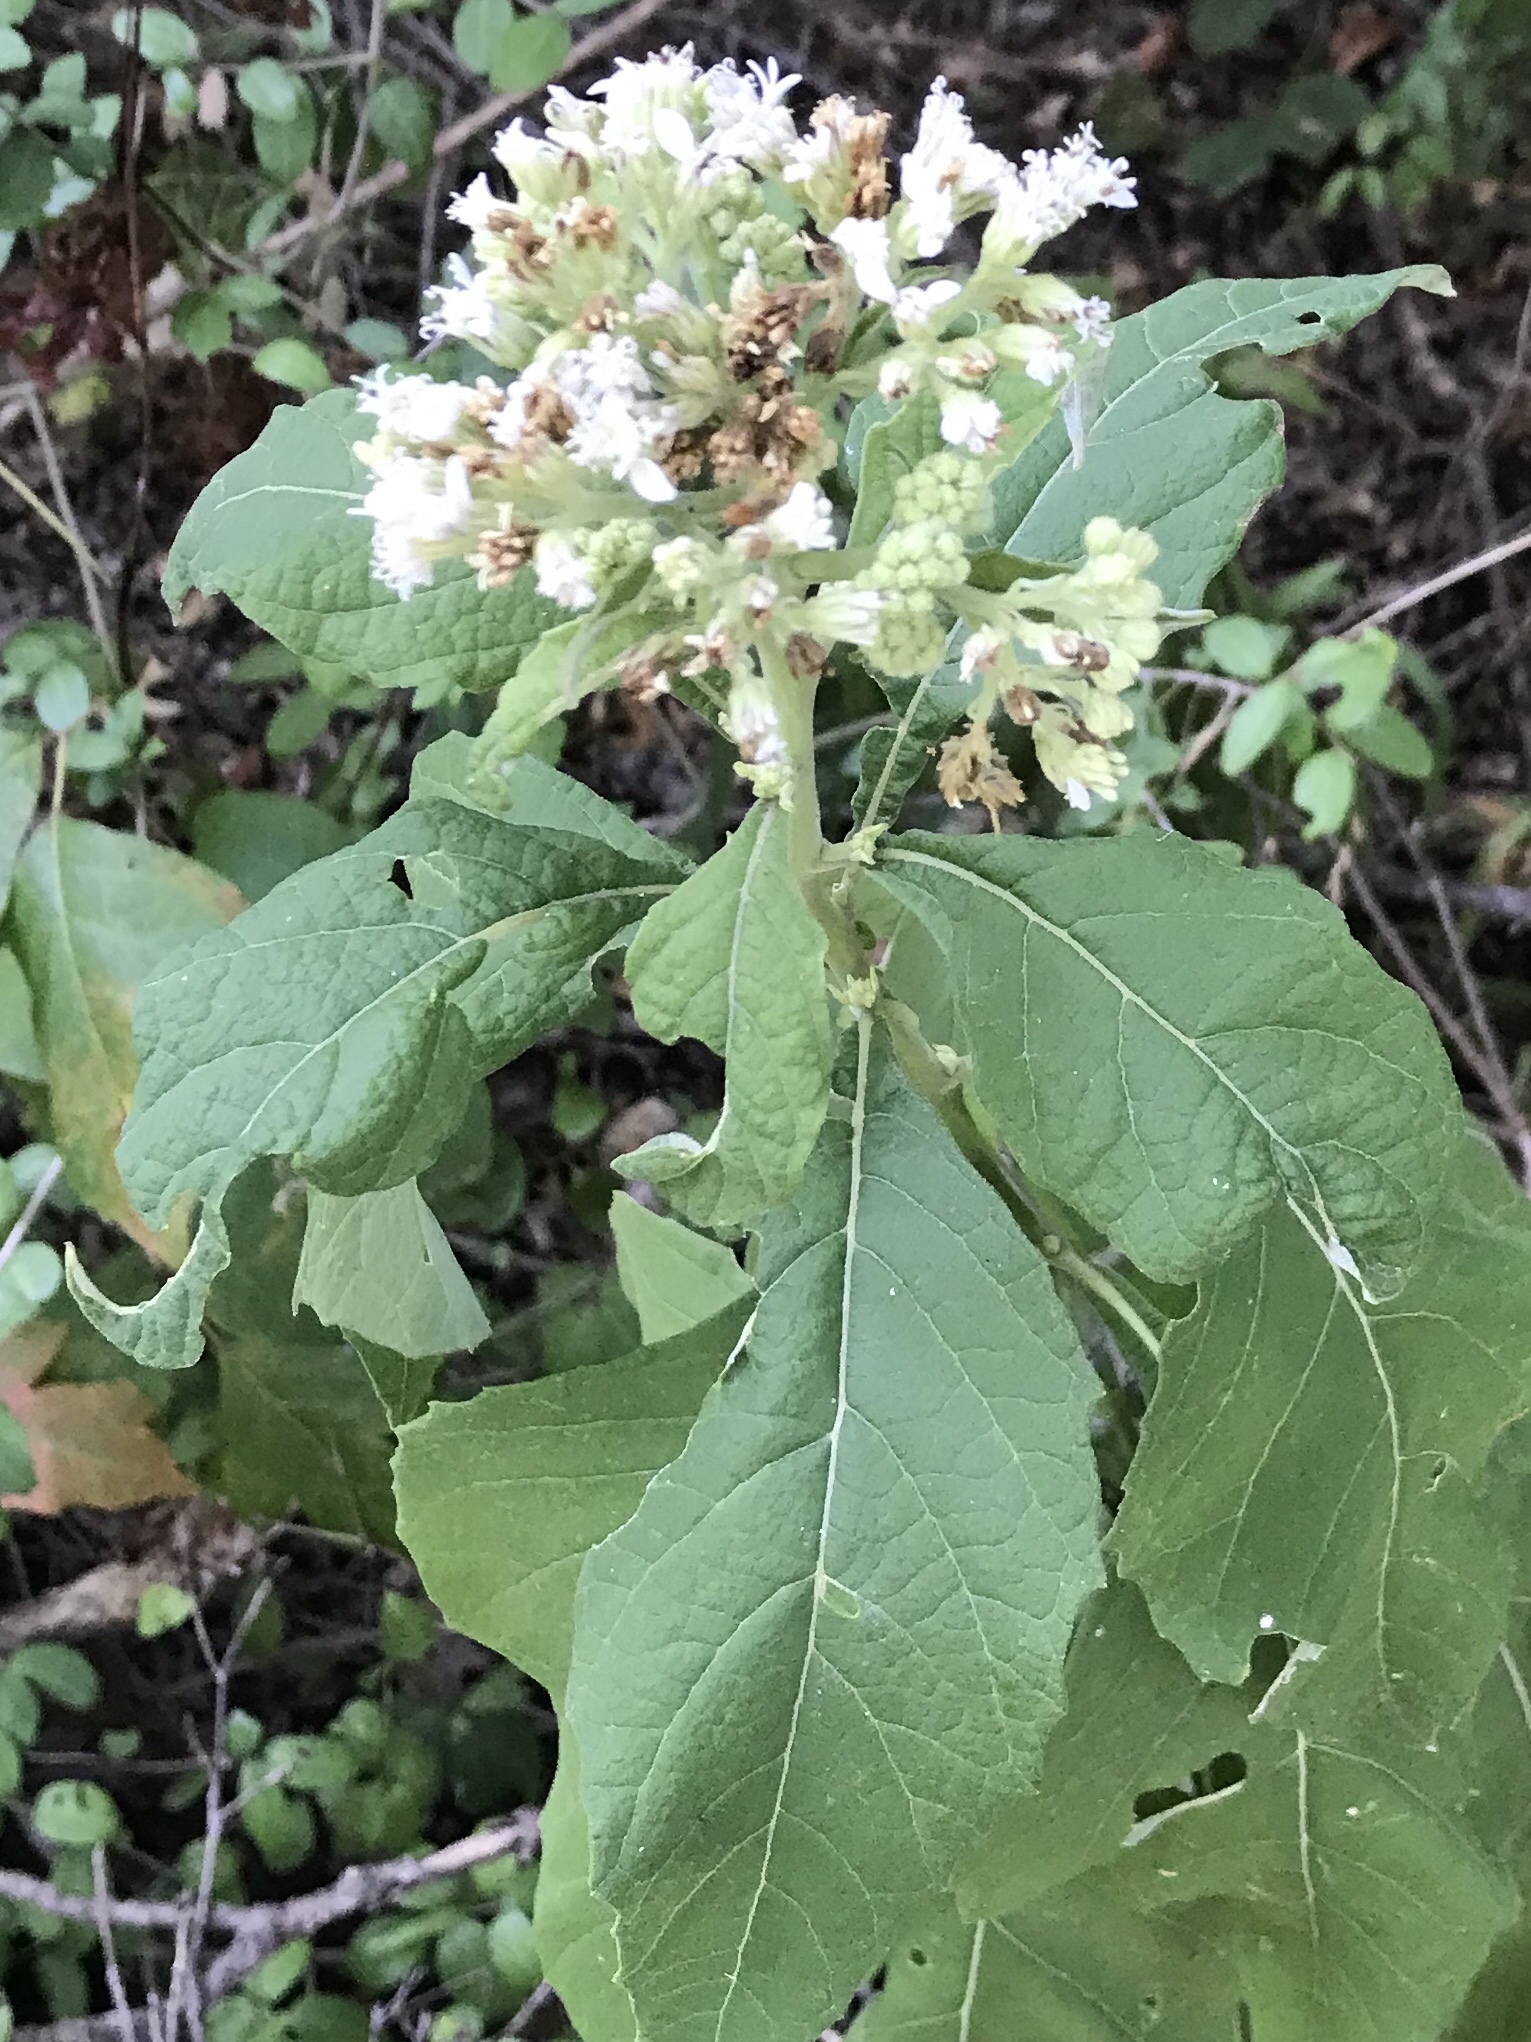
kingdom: Plantae
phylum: Tracheophyta
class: Magnoliopsida
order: Asterales
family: Asteraceae
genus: Verbesina
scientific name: Verbesina virginica
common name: Frostweed
